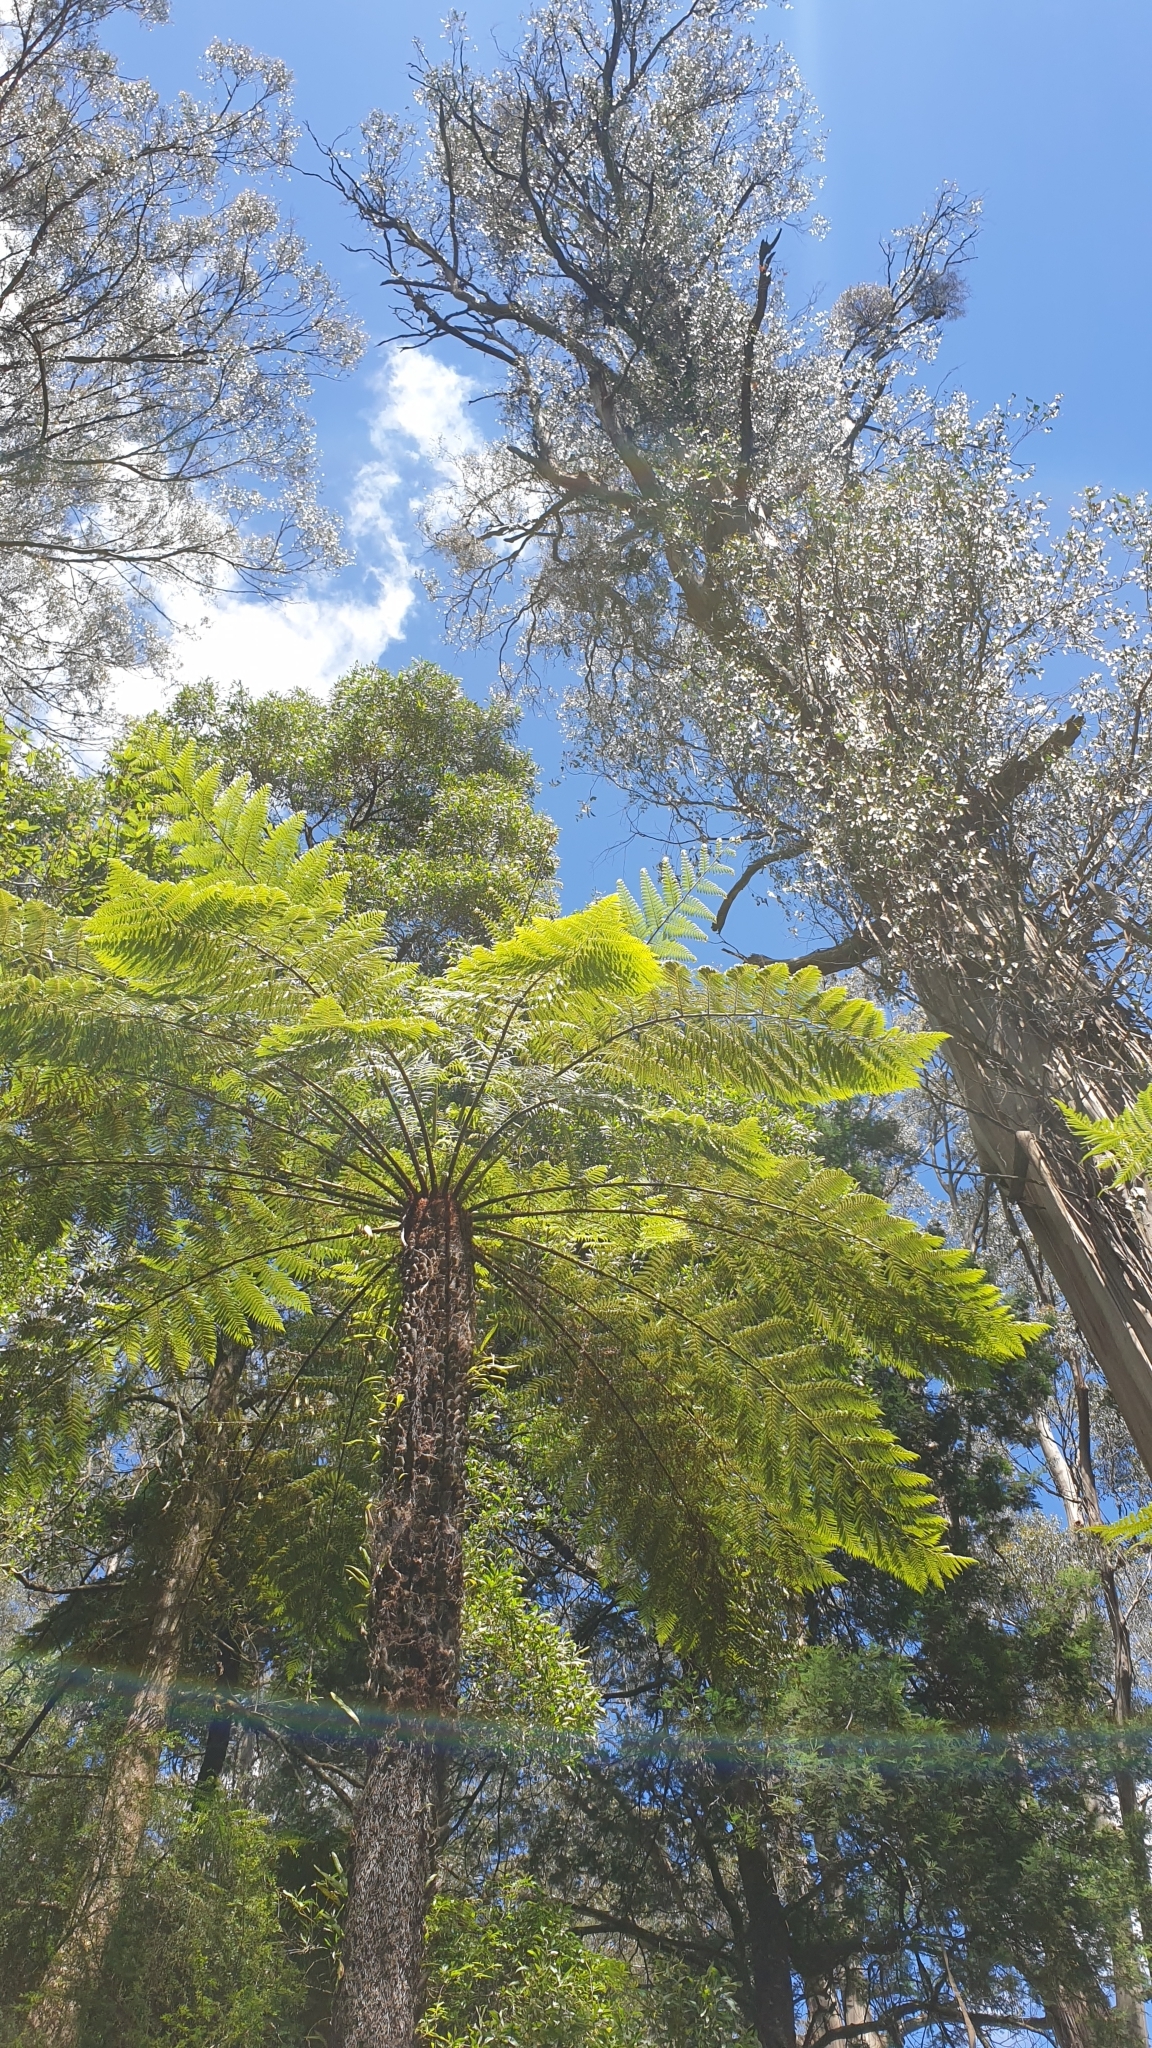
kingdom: Plantae
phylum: Tracheophyta
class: Polypodiopsida
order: Cyatheales
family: Cyatheaceae
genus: Alsophila
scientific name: Alsophila australis
